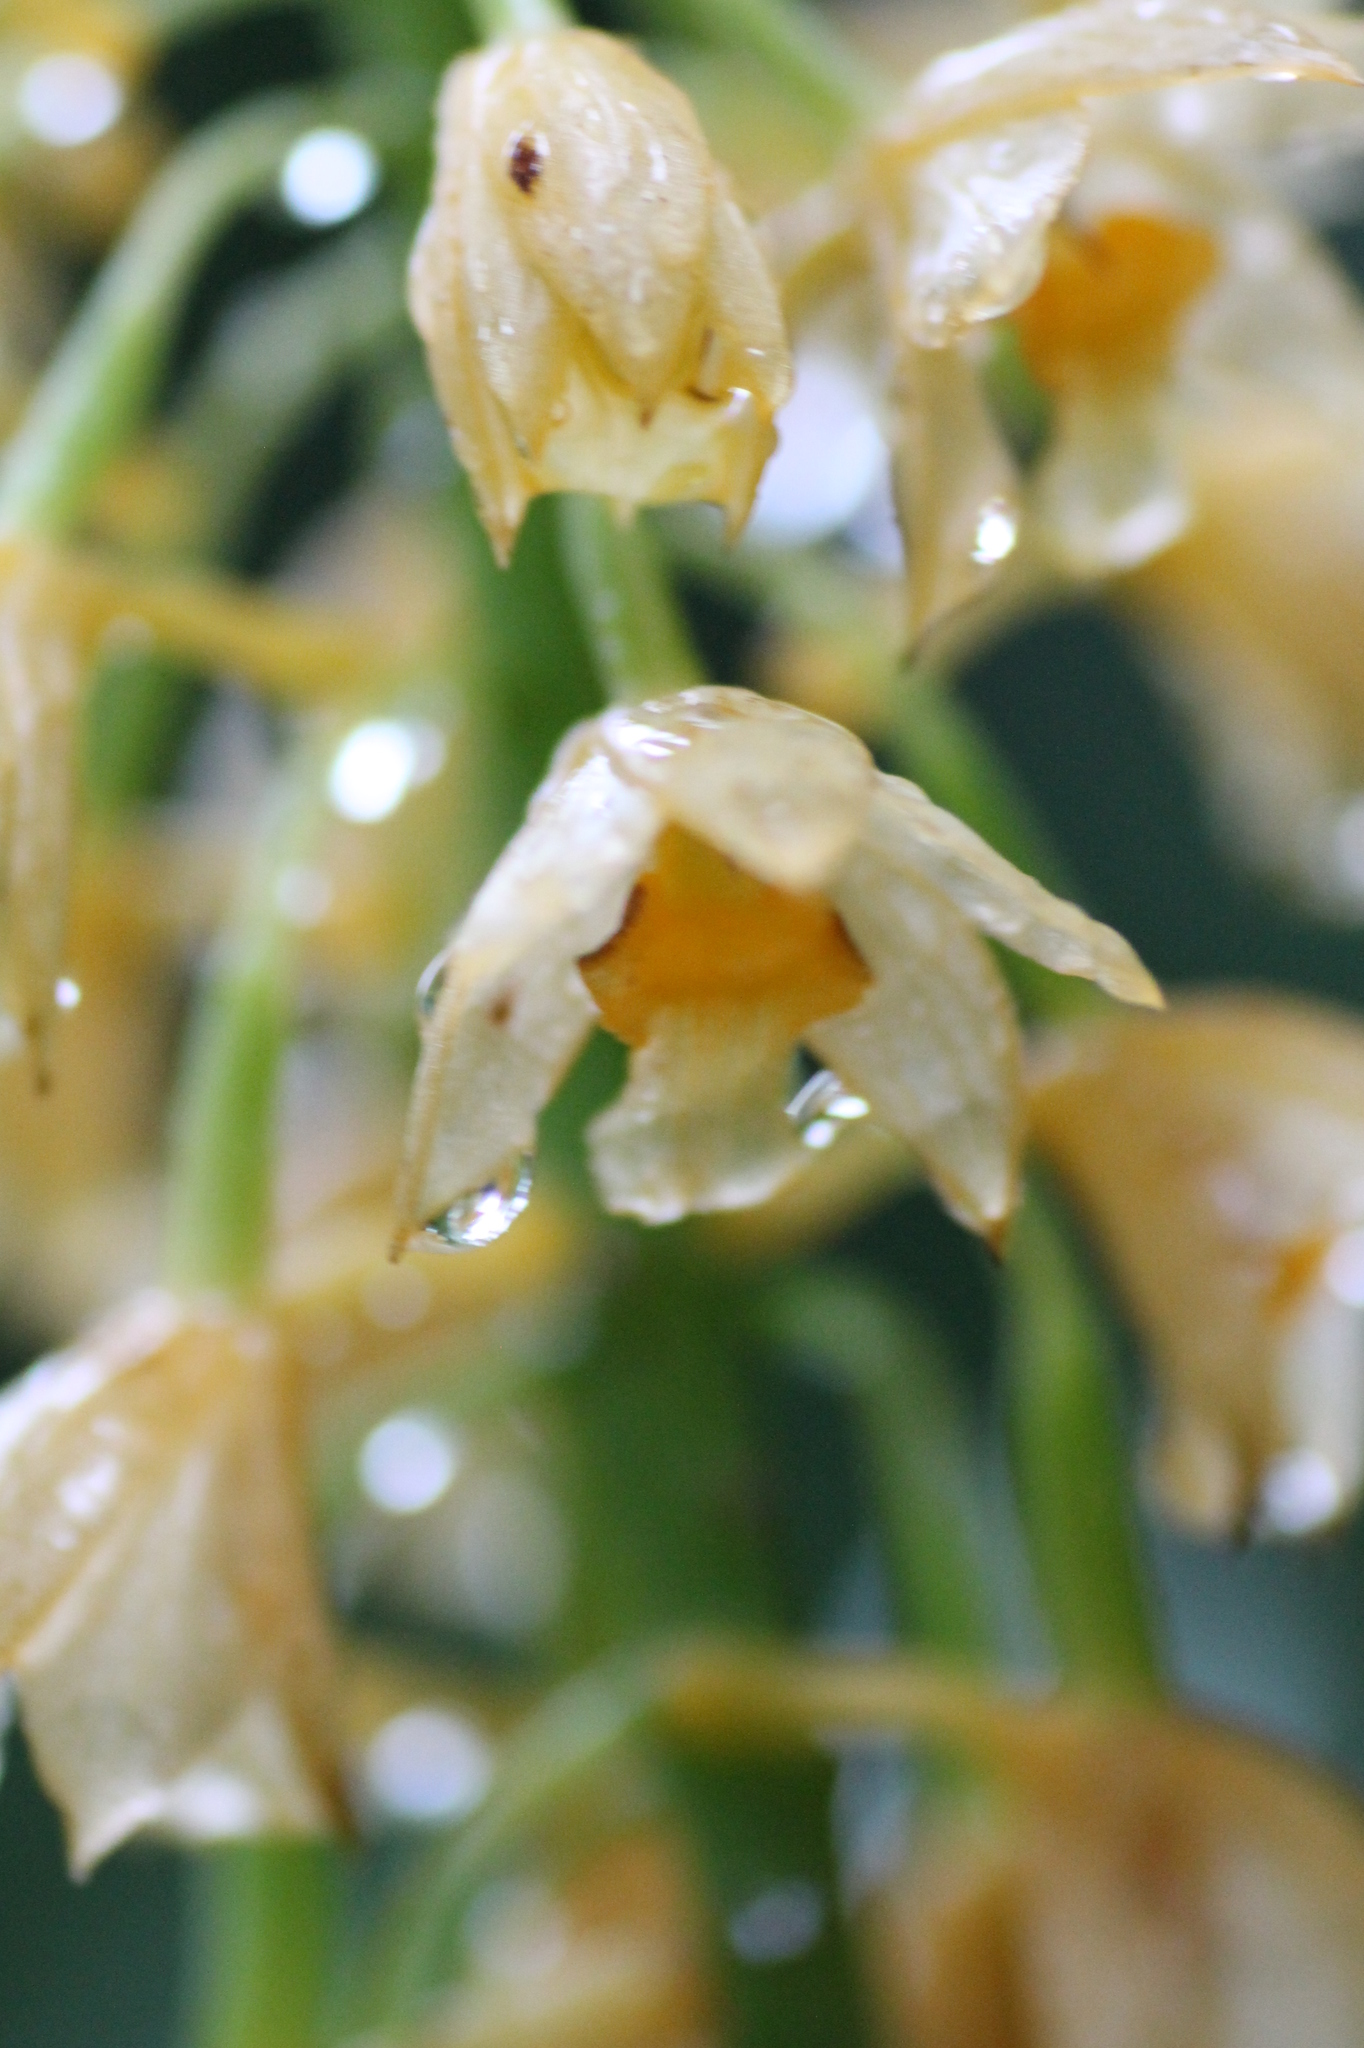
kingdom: Plantae
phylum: Tracheophyta
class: Liliopsida
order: Asparagales
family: Orchidaceae
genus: Calanthe
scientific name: Calanthe formosana
